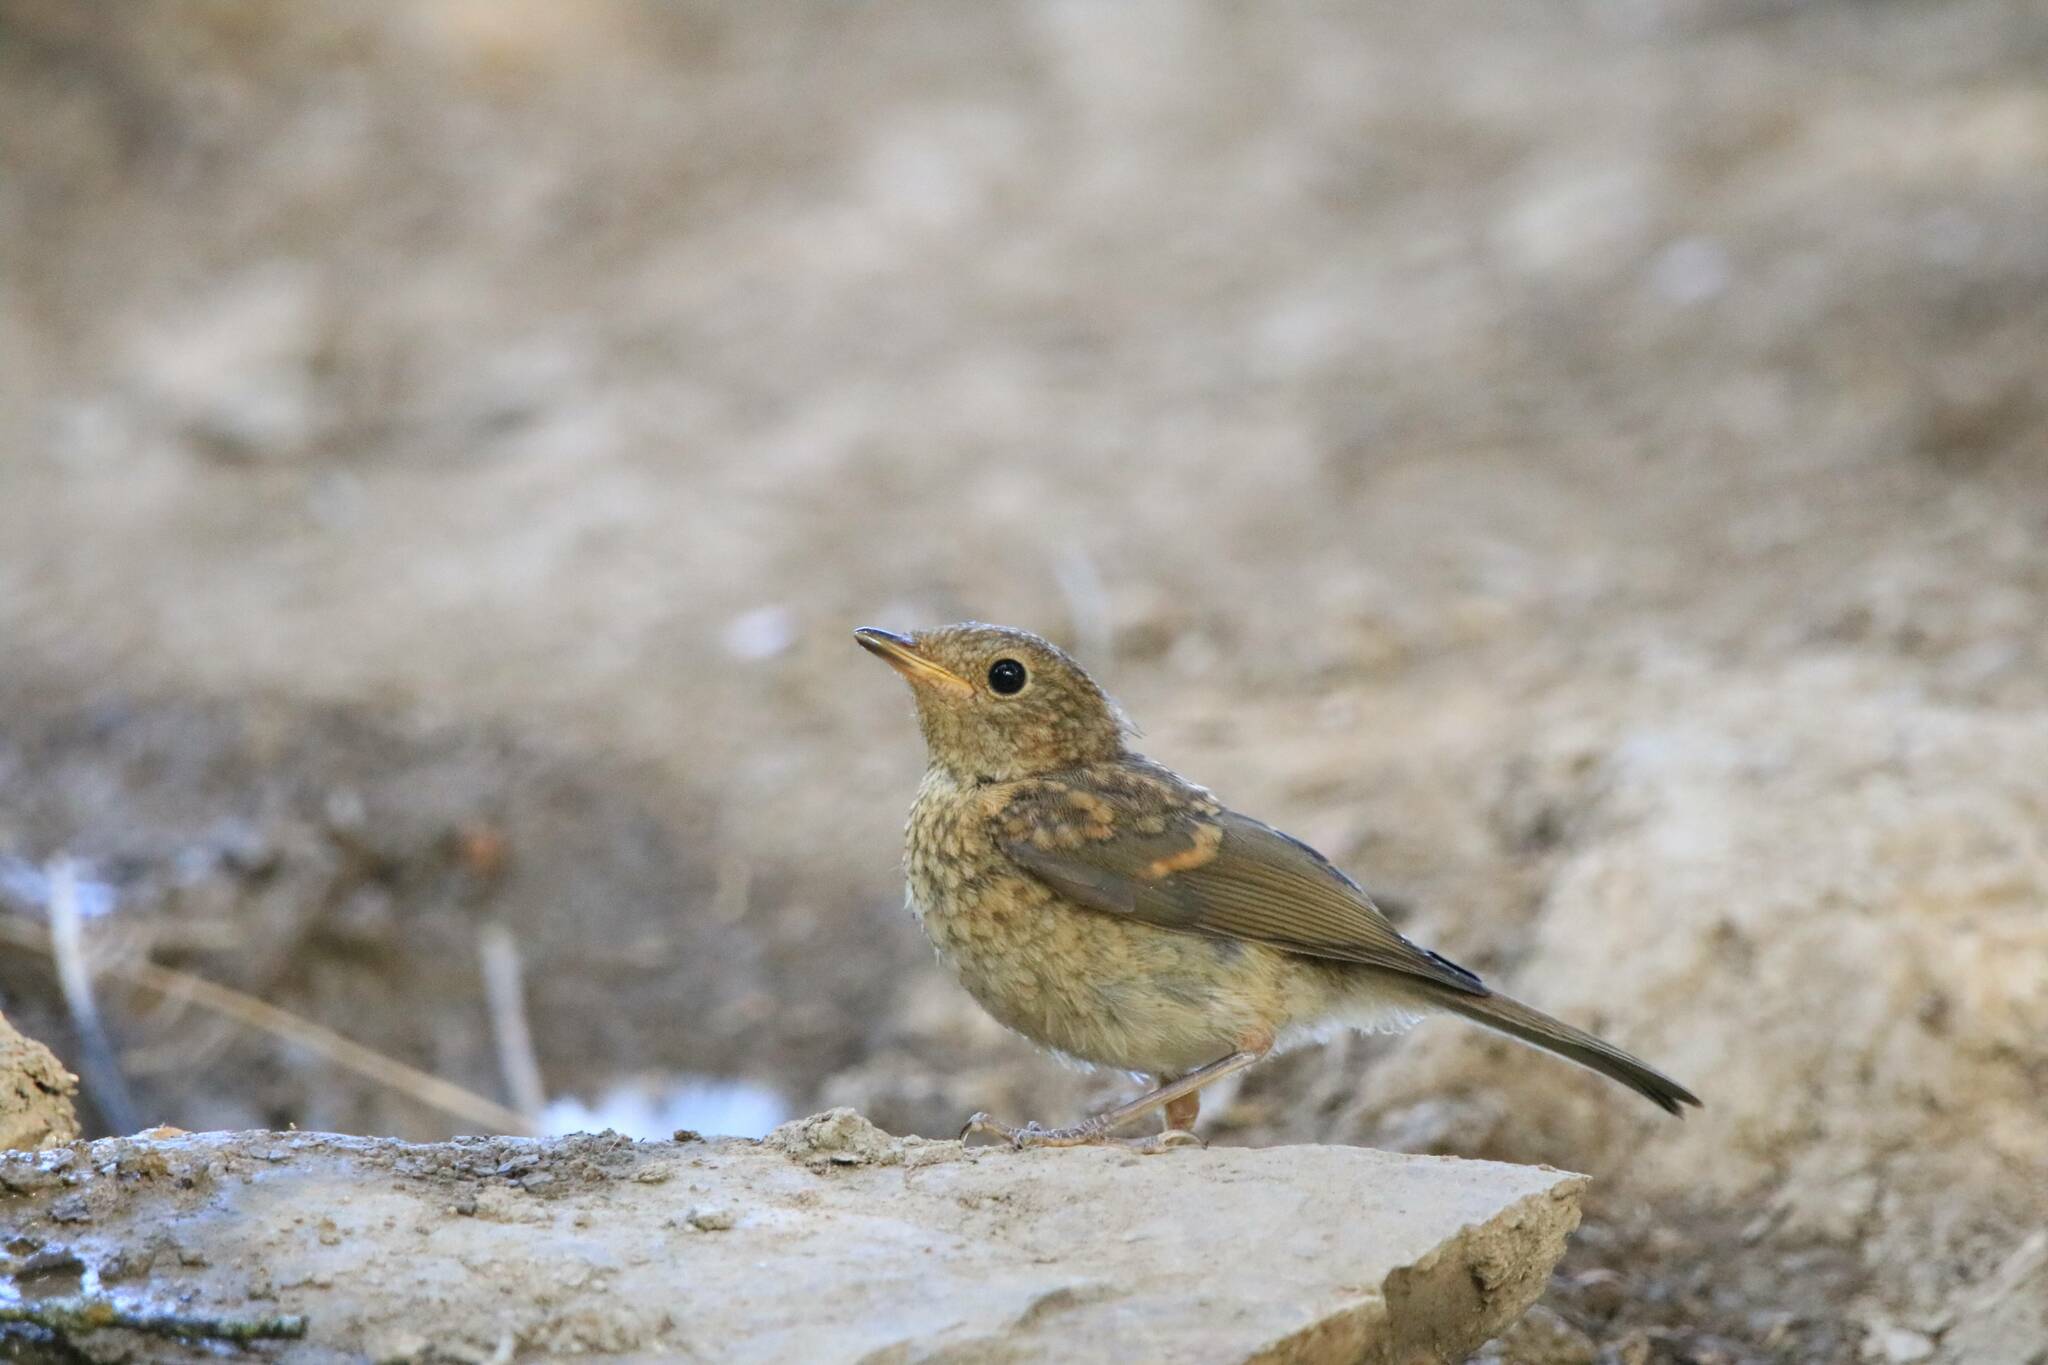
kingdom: Animalia
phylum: Chordata
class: Aves
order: Passeriformes
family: Muscicapidae
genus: Erithacus
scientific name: Erithacus rubecula
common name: European robin
